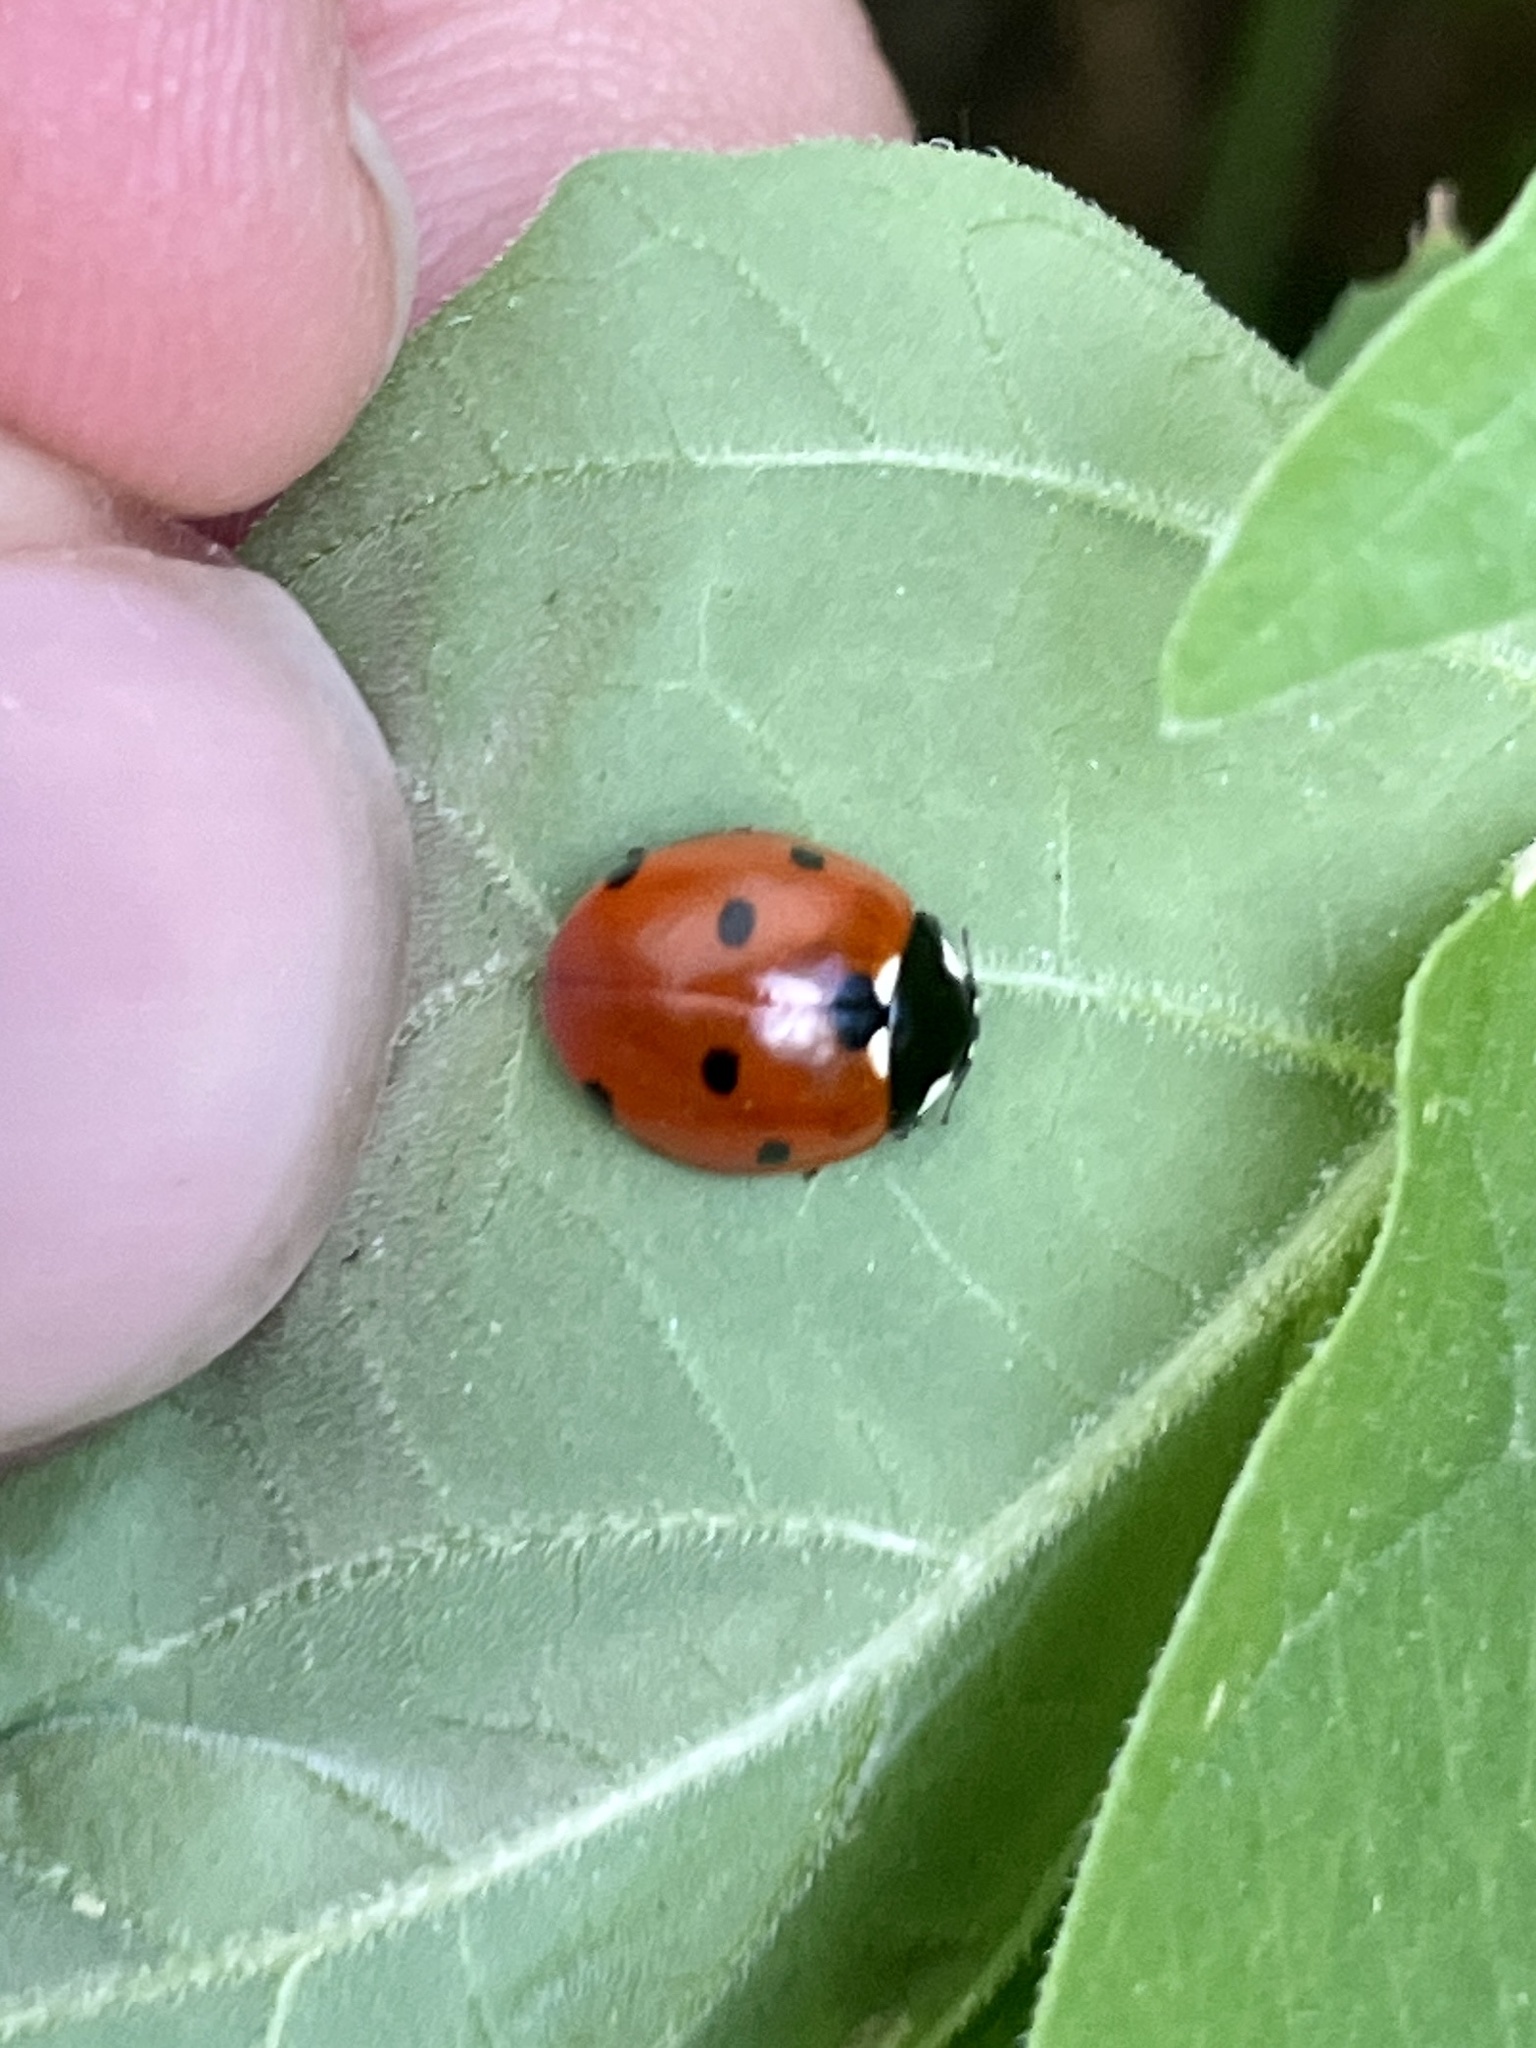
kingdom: Animalia
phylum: Arthropoda
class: Insecta
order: Coleoptera
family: Coccinellidae
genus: Coccinella
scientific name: Coccinella septempunctata
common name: Sevenspotted lady beetle
